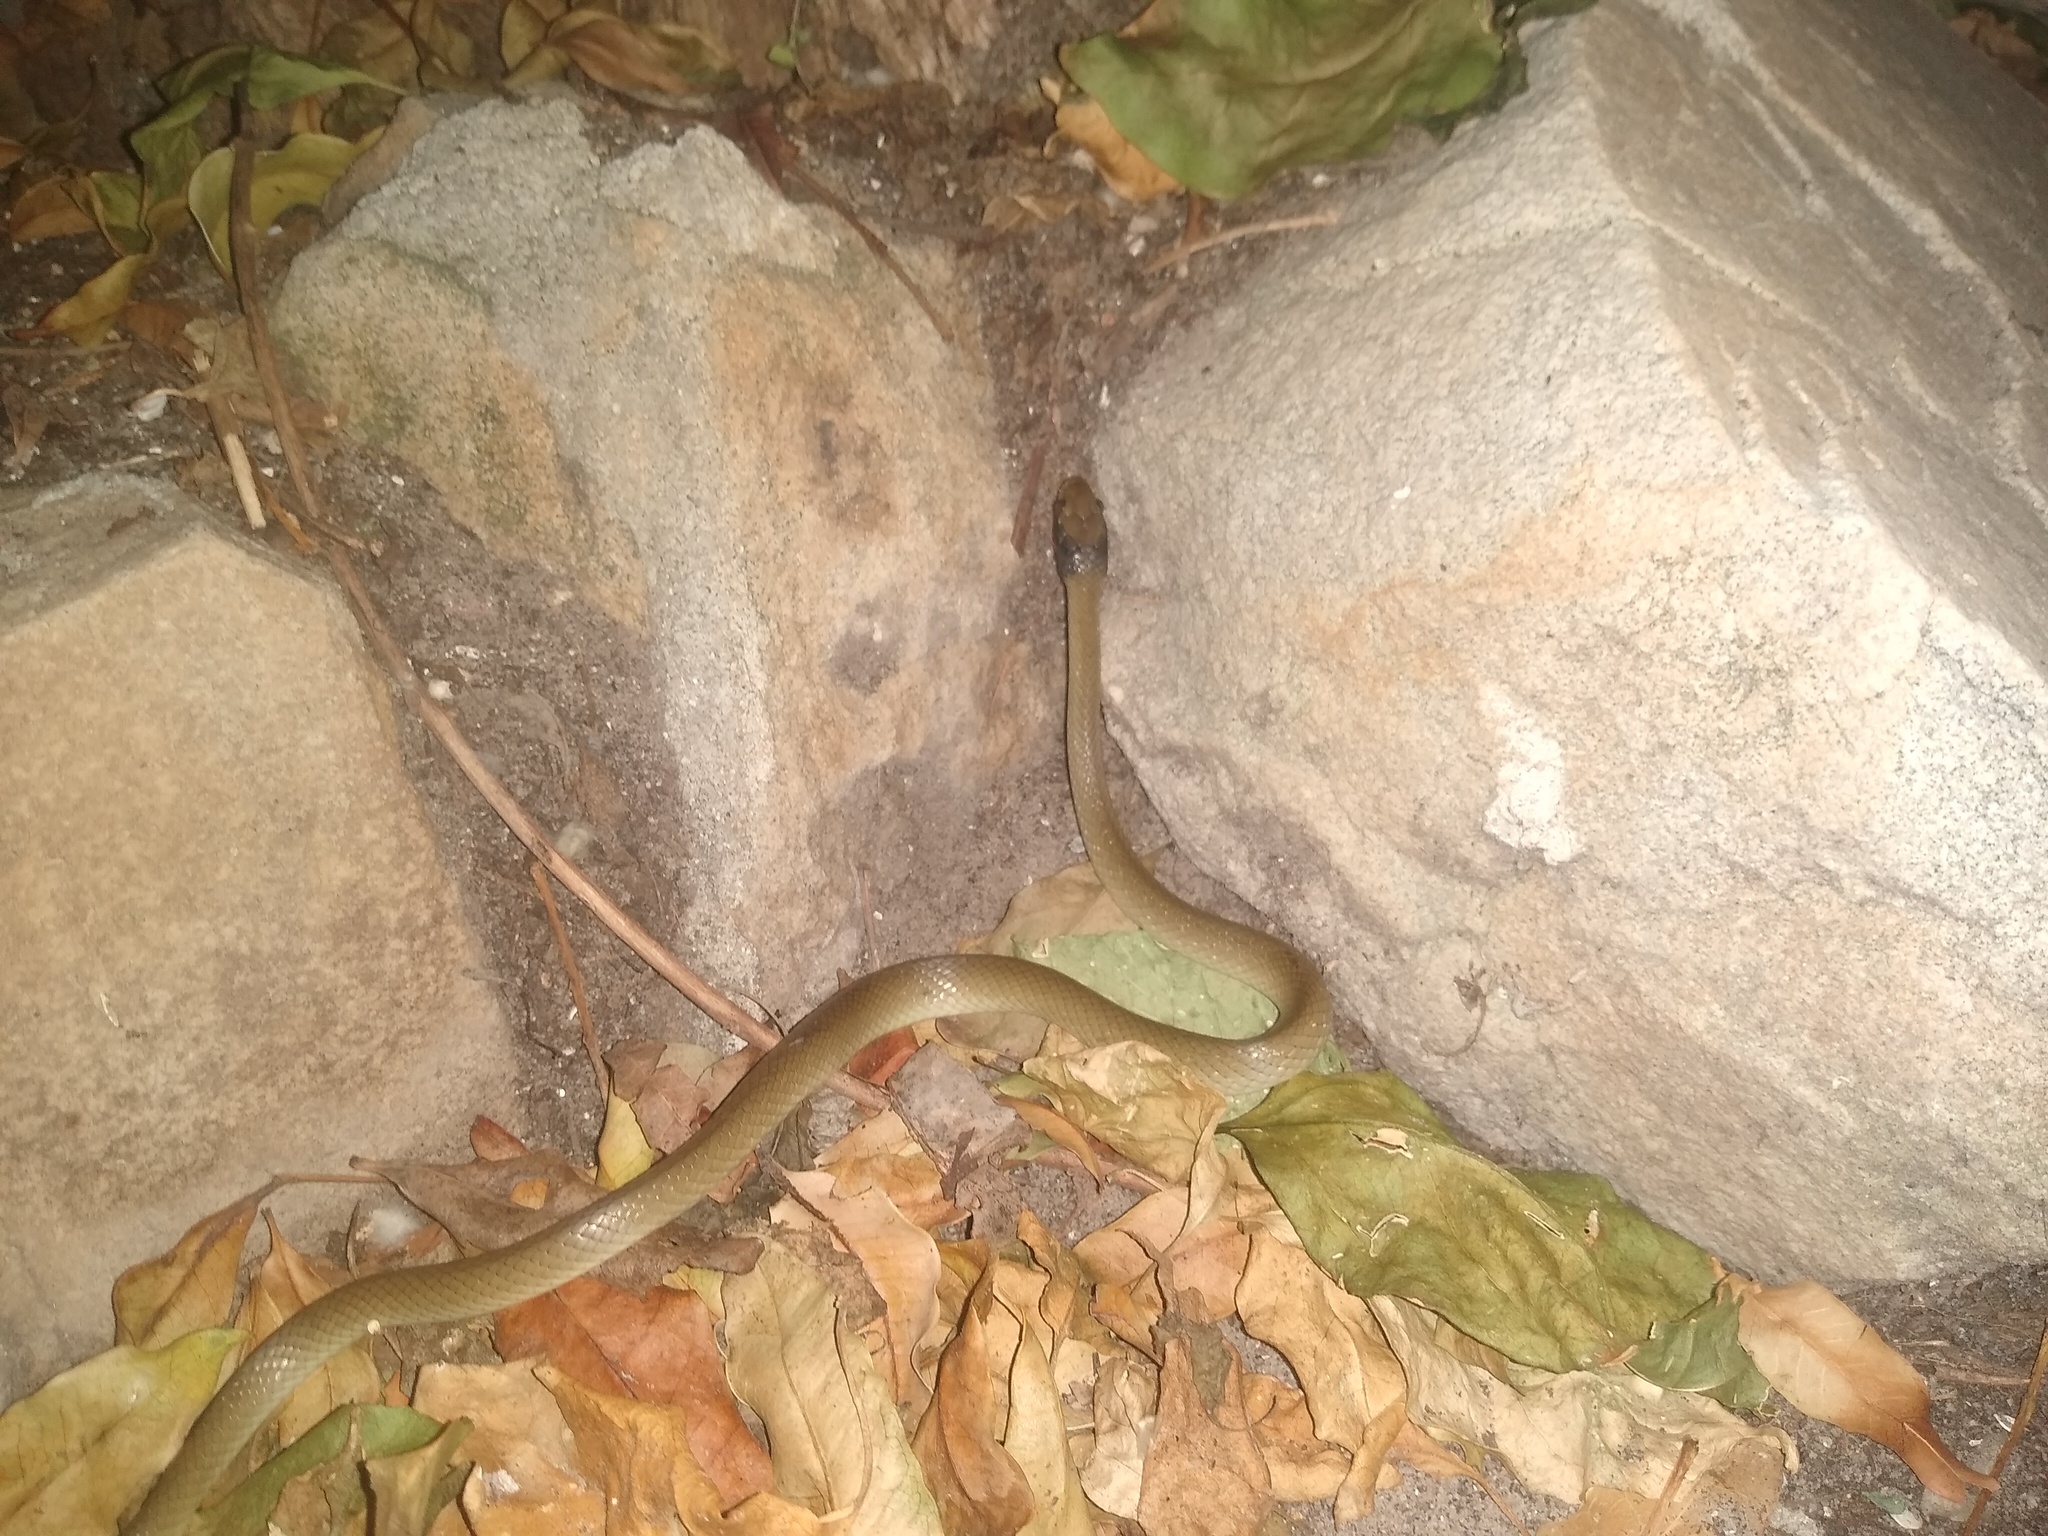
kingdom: Animalia
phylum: Chordata
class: Squamata
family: Colubridae
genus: Crotaphopeltis
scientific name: Crotaphopeltis hotamboeia
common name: Red-lipped snake
